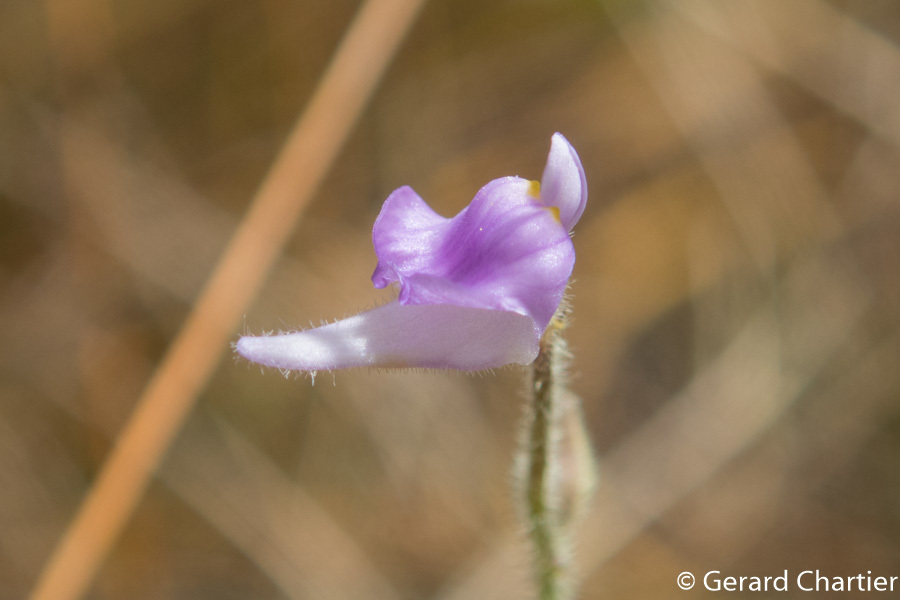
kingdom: Plantae
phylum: Tracheophyta
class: Magnoliopsida
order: Lamiales
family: Lentibulariaceae
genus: Utricularia
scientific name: Utricularia hirta
